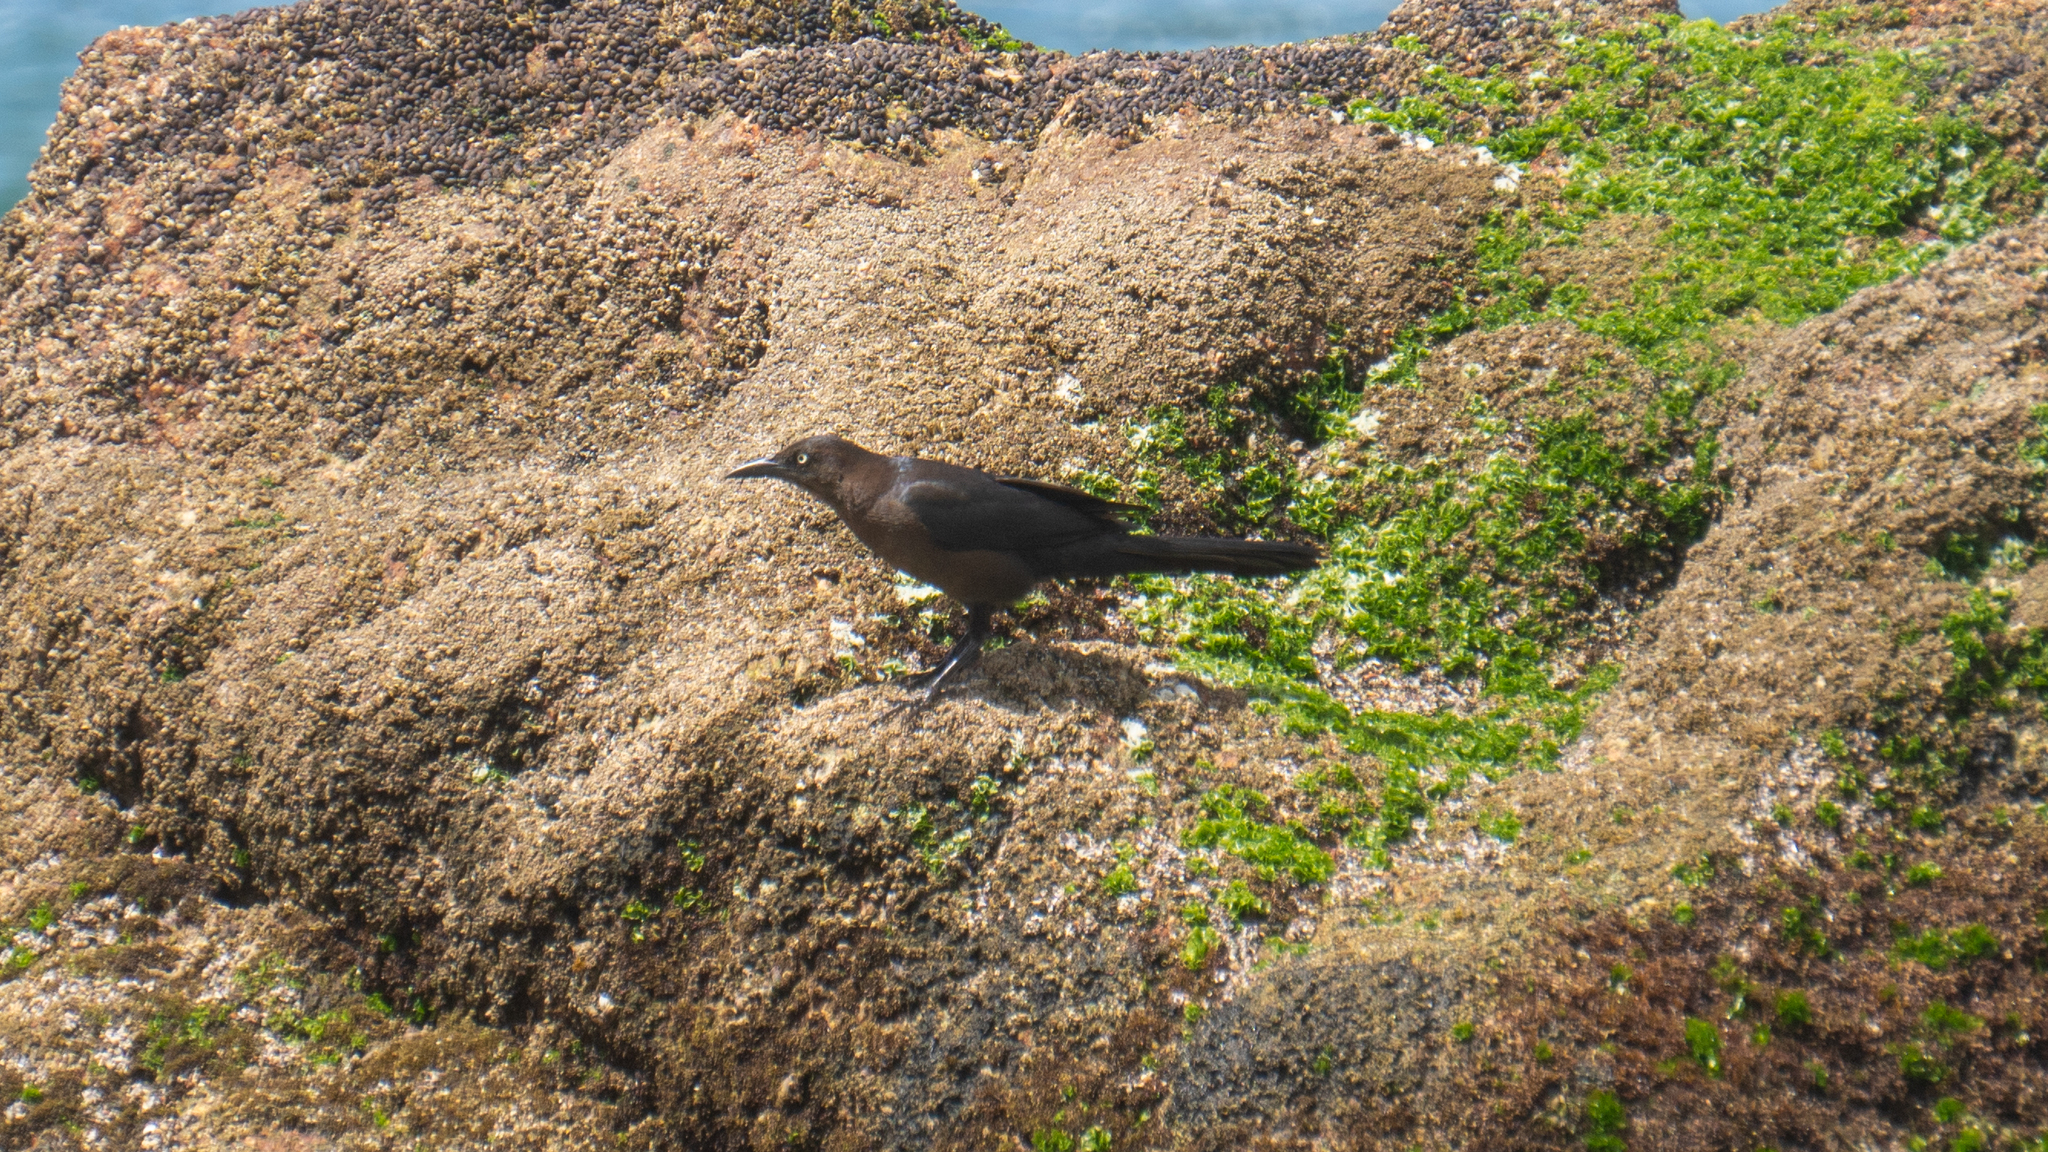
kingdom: Animalia
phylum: Chordata
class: Aves
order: Passeriformes
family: Icteridae
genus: Quiscalus
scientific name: Quiscalus mexicanus
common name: Great-tailed grackle
